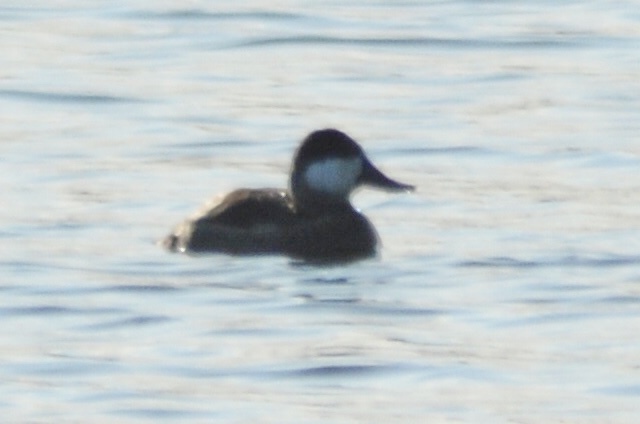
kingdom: Animalia
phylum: Chordata
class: Aves
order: Anseriformes
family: Anatidae
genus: Oxyura
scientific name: Oxyura jamaicensis
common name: Ruddy duck
